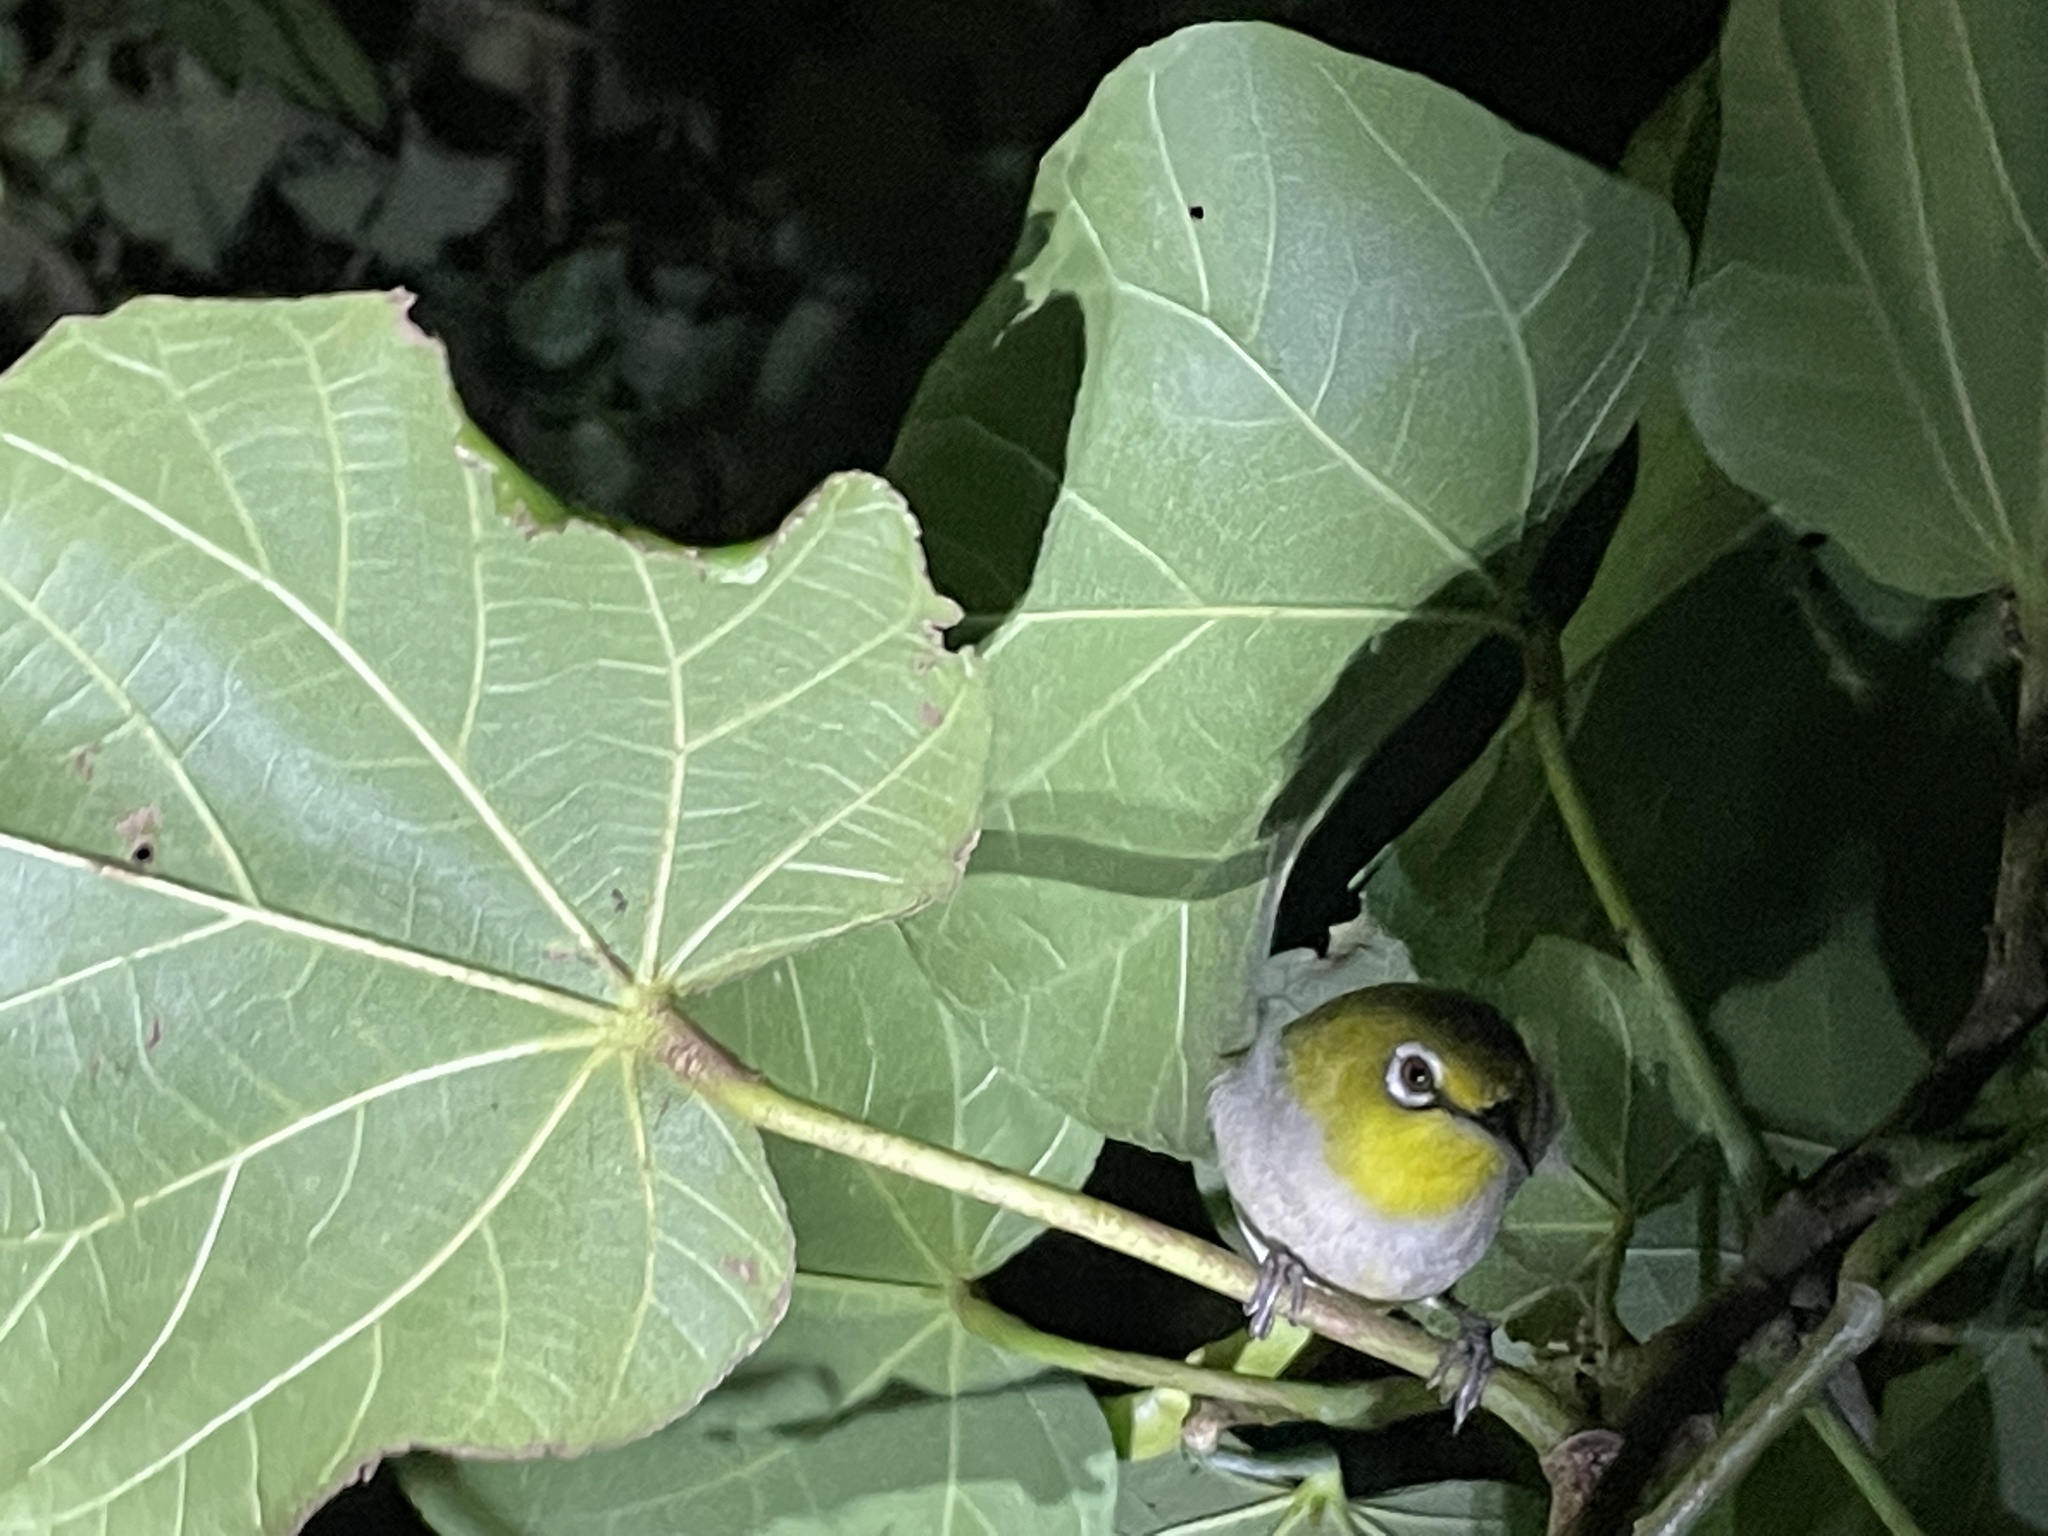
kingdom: Animalia
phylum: Chordata
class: Aves
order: Passeriformes
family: Zosteropidae
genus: Zosterops
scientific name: Zosterops simplex
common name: Swinhoe's white-eye
